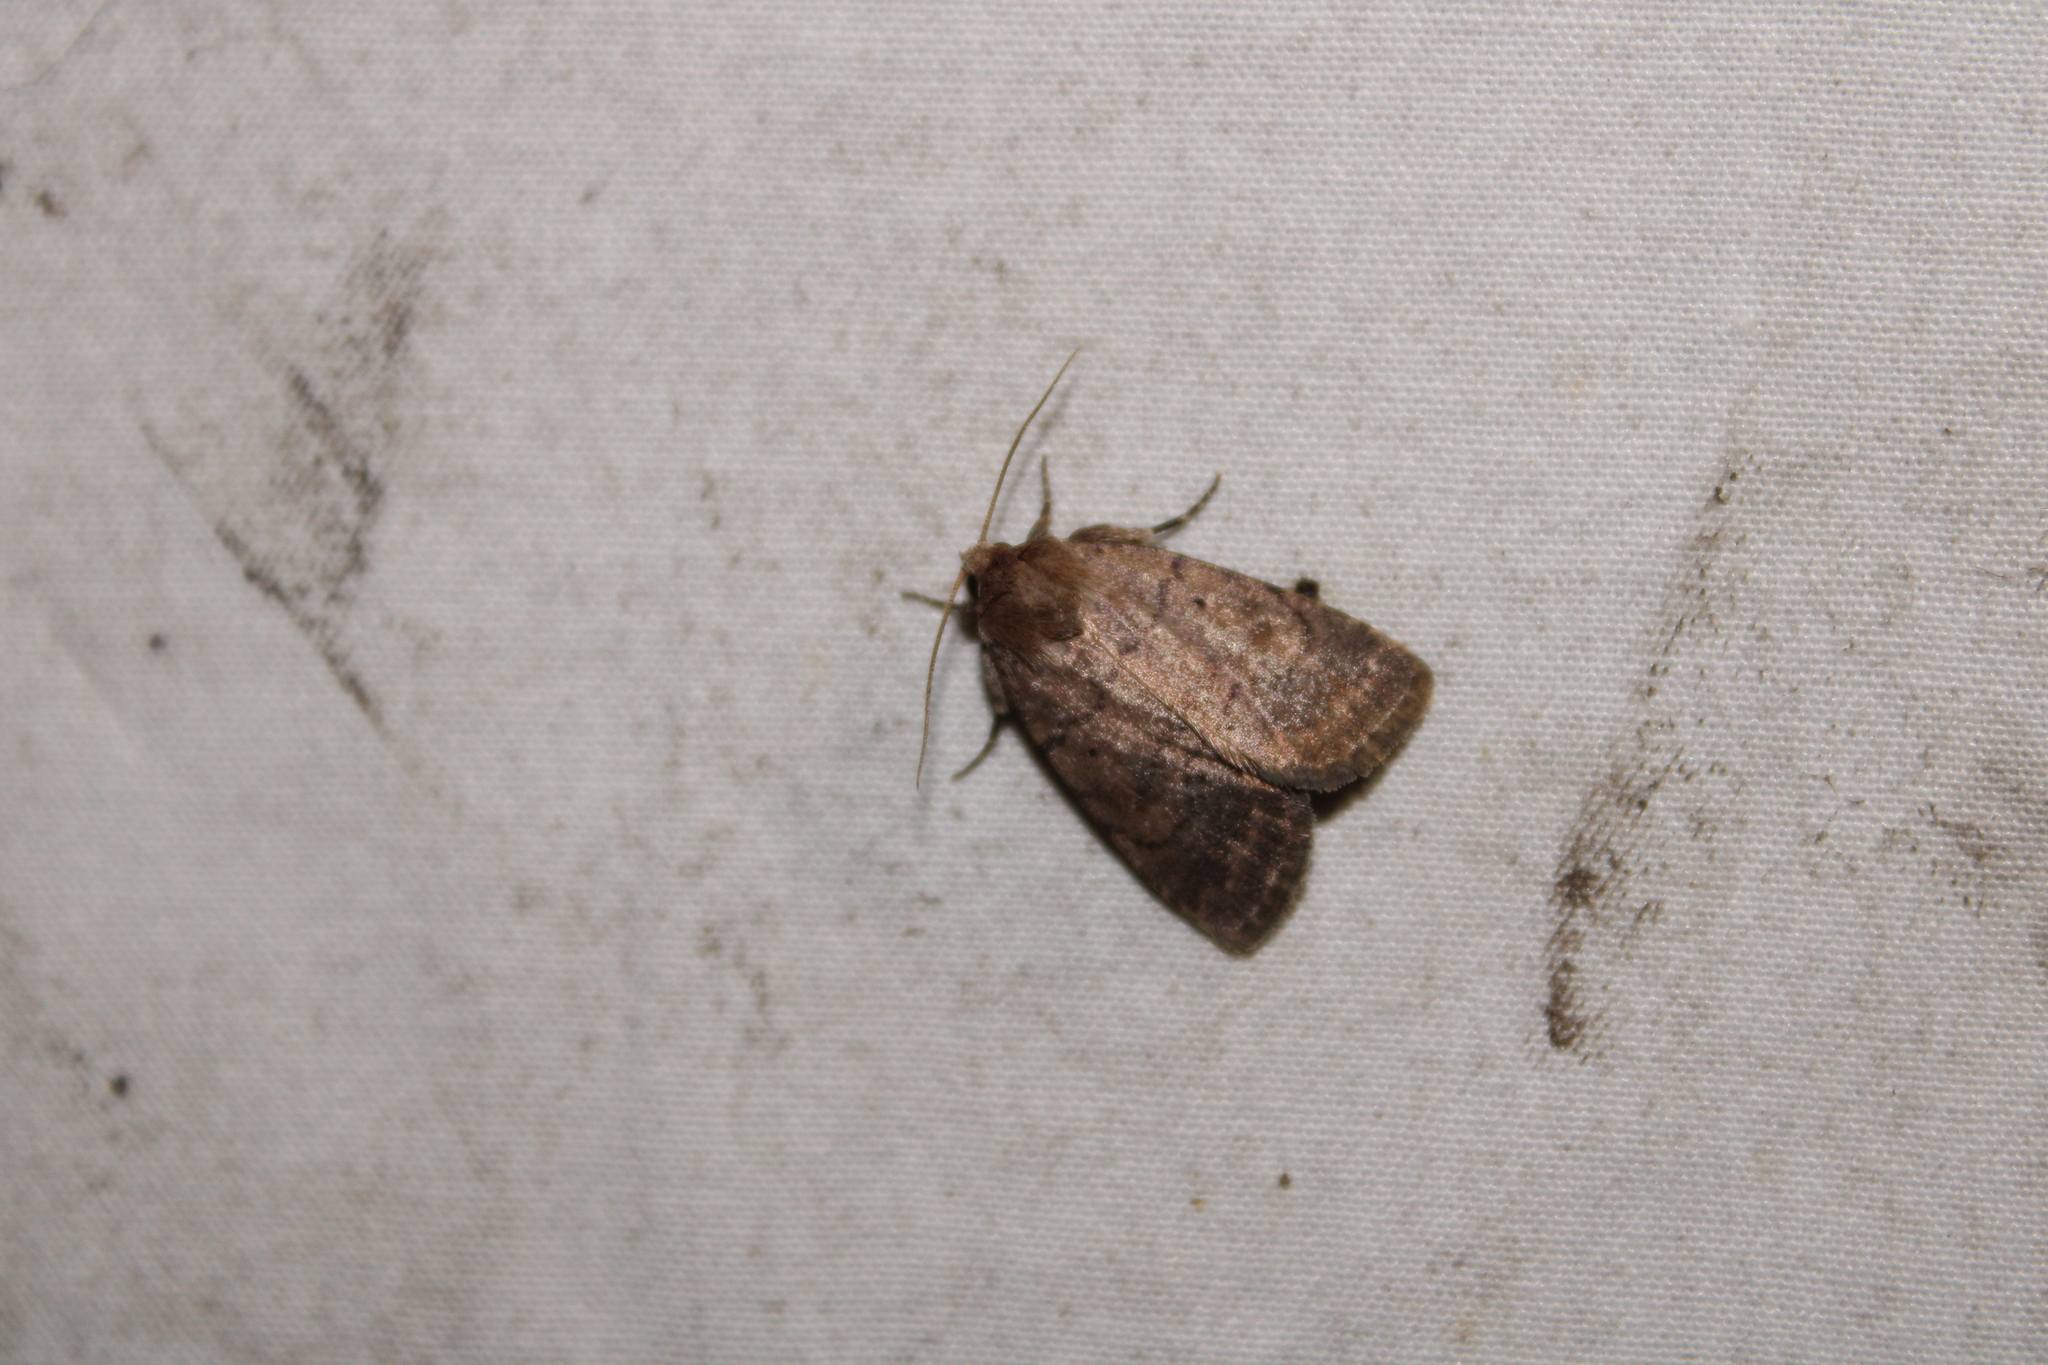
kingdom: Animalia
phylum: Arthropoda
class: Insecta
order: Lepidoptera
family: Noctuidae
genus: Athetis
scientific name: Athetis tarda
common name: Slowpoke moth
